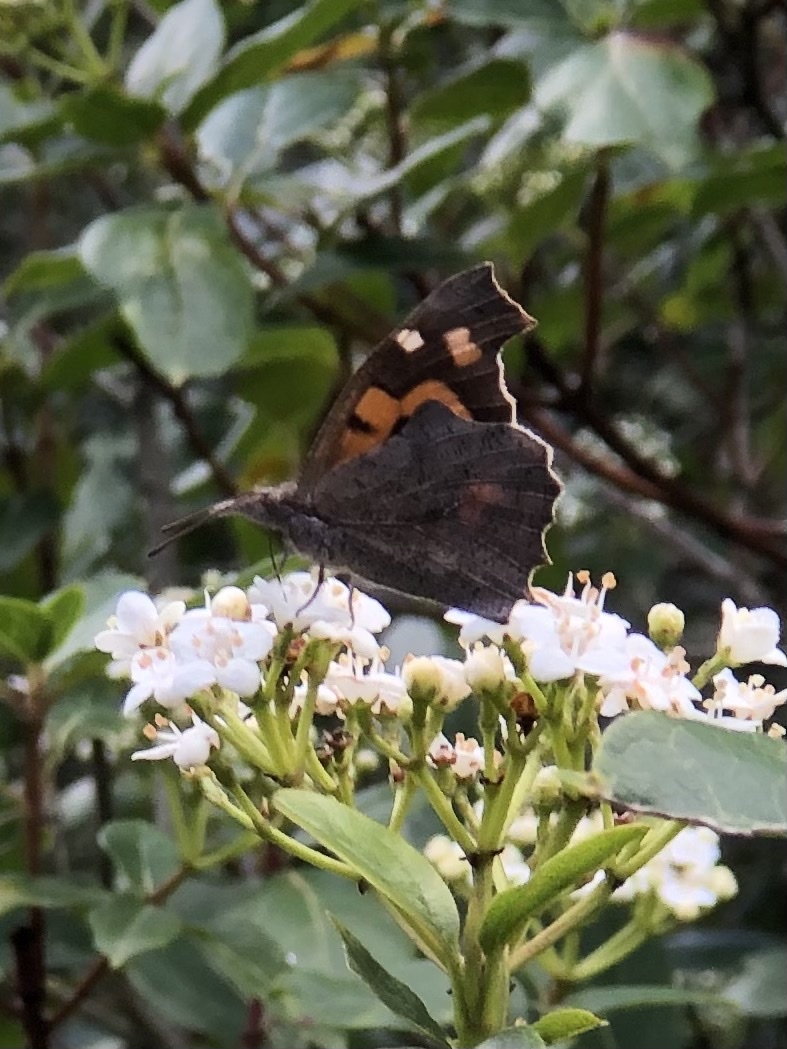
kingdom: Animalia
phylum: Arthropoda
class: Insecta
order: Lepidoptera
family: Nymphalidae
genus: Libythea
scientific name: Libythea celtis
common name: Nettle-tree butterfly
